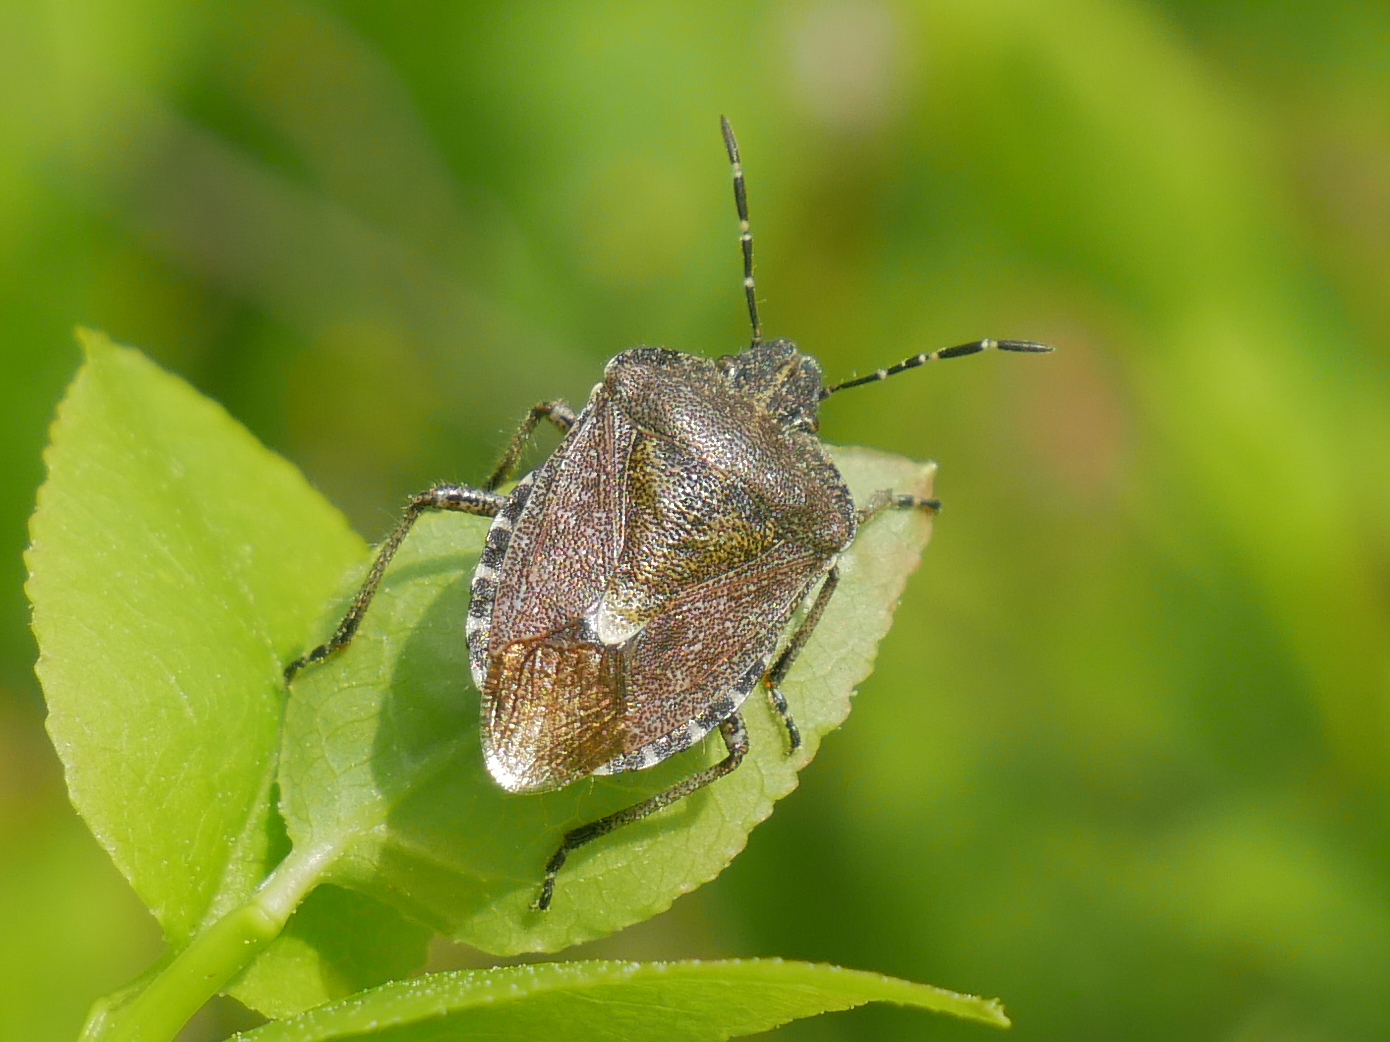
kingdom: Animalia
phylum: Arthropoda
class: Insecta
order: Hemiptera
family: Pentatomidae
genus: Dolycoris
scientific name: Dolycoris baccarum
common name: Sloe bug
